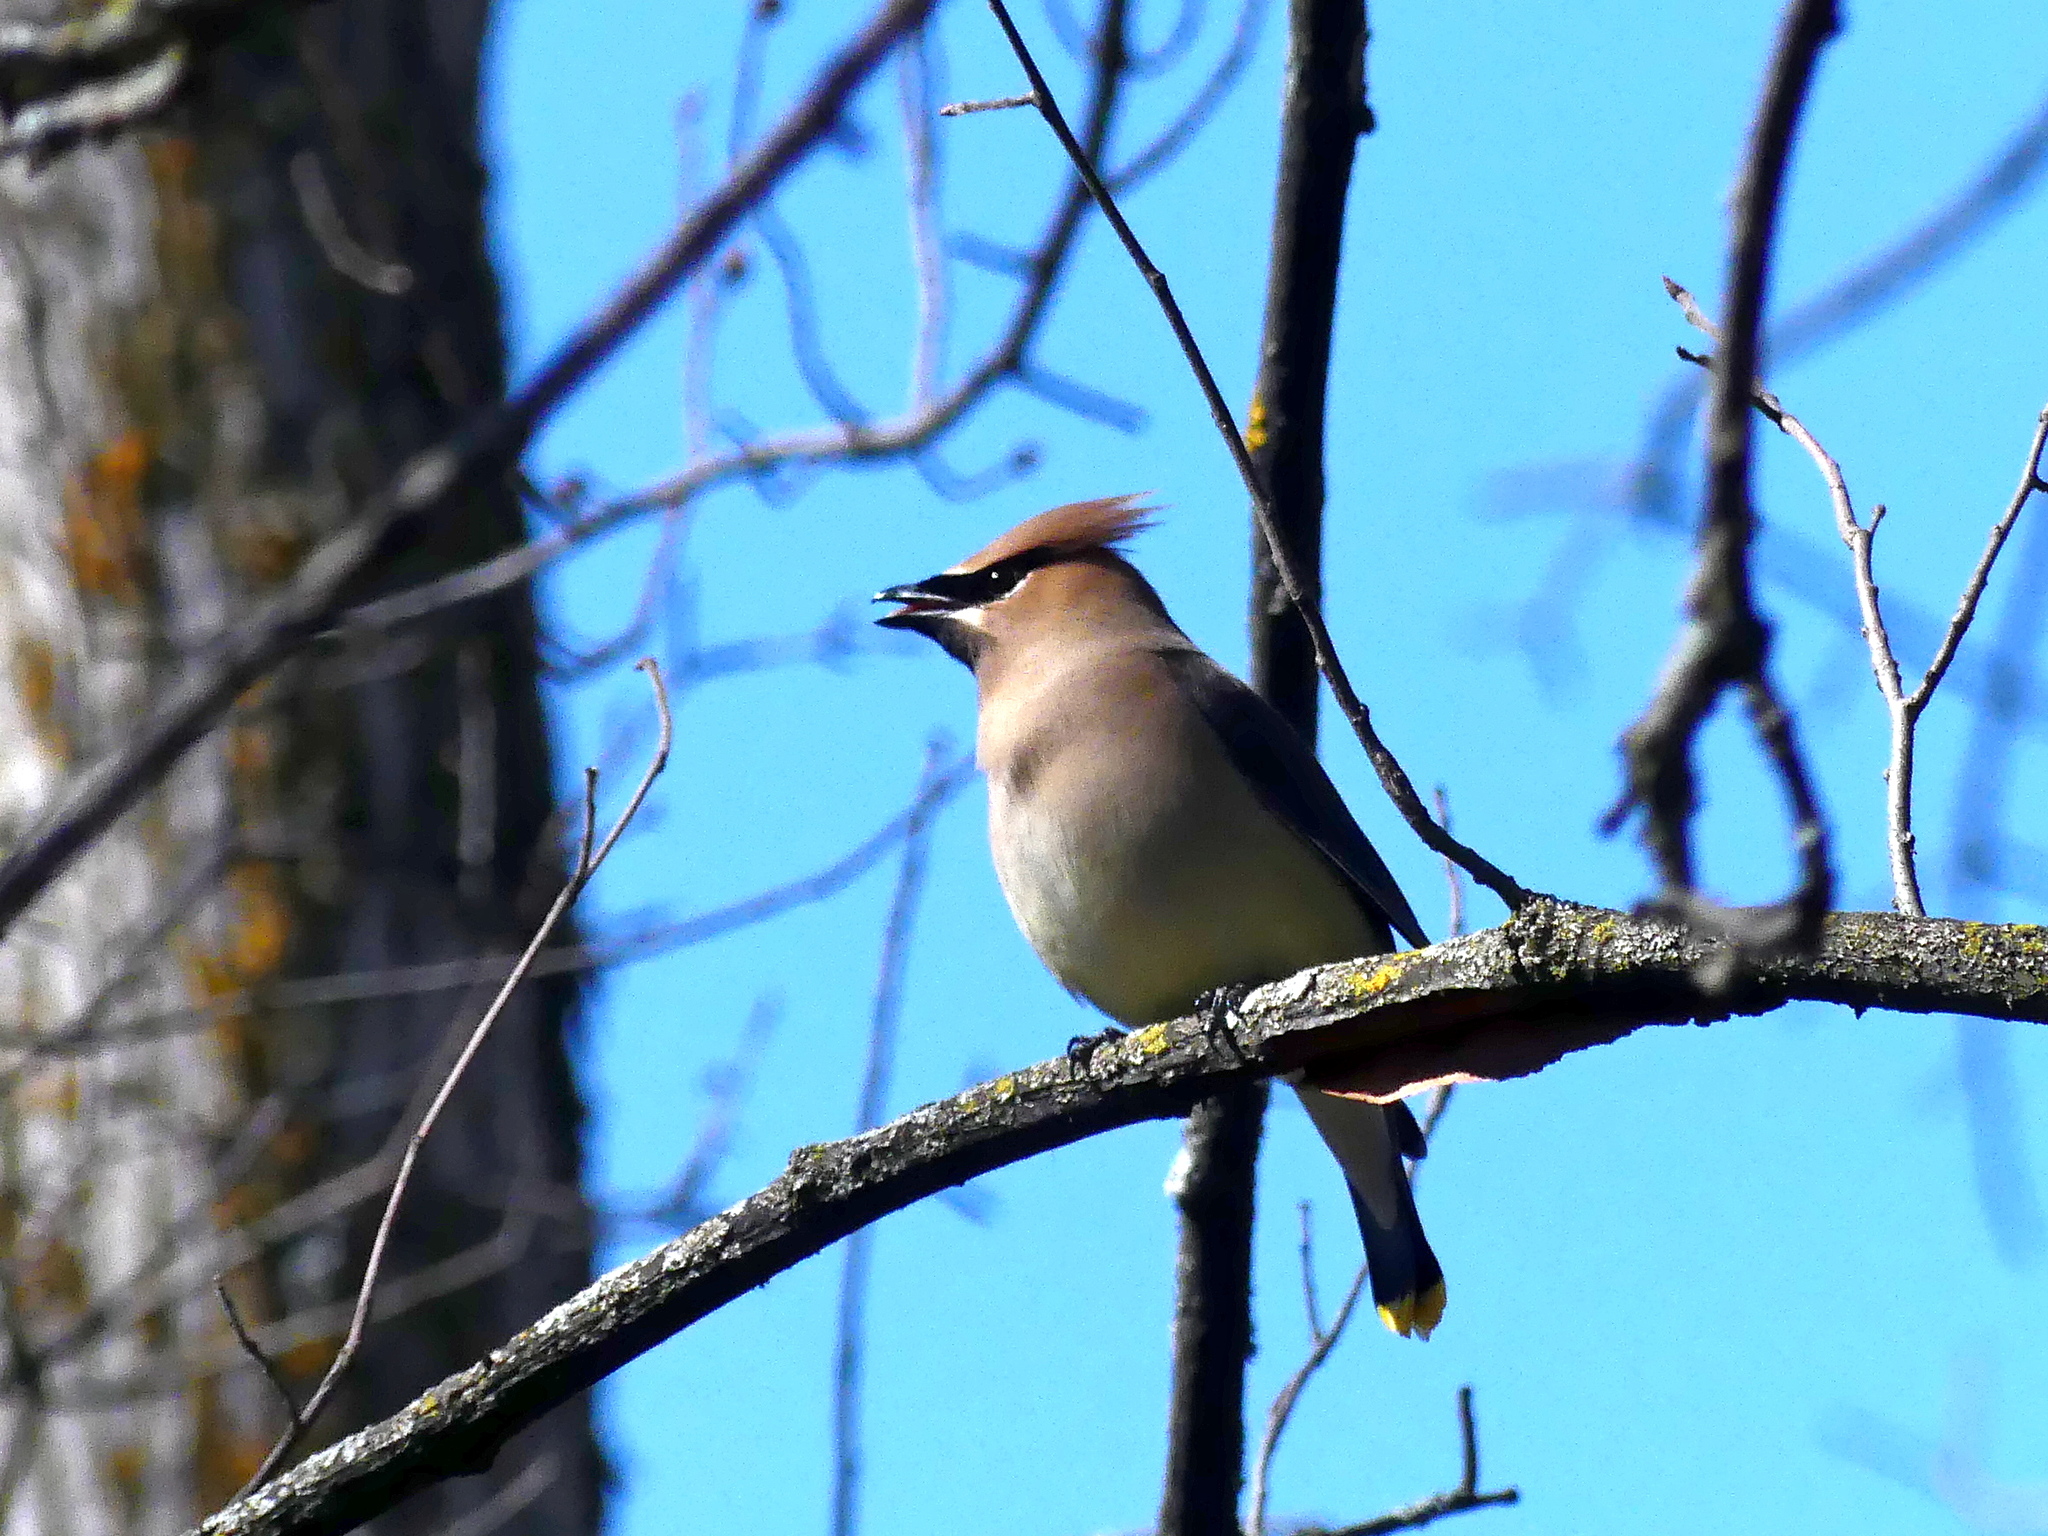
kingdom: Animalia
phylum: Chordata
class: Aves
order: Passeriformes
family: Bombycillidae
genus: Bombycilla
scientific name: Bombycilla cedrorum
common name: Cedar waxwing
